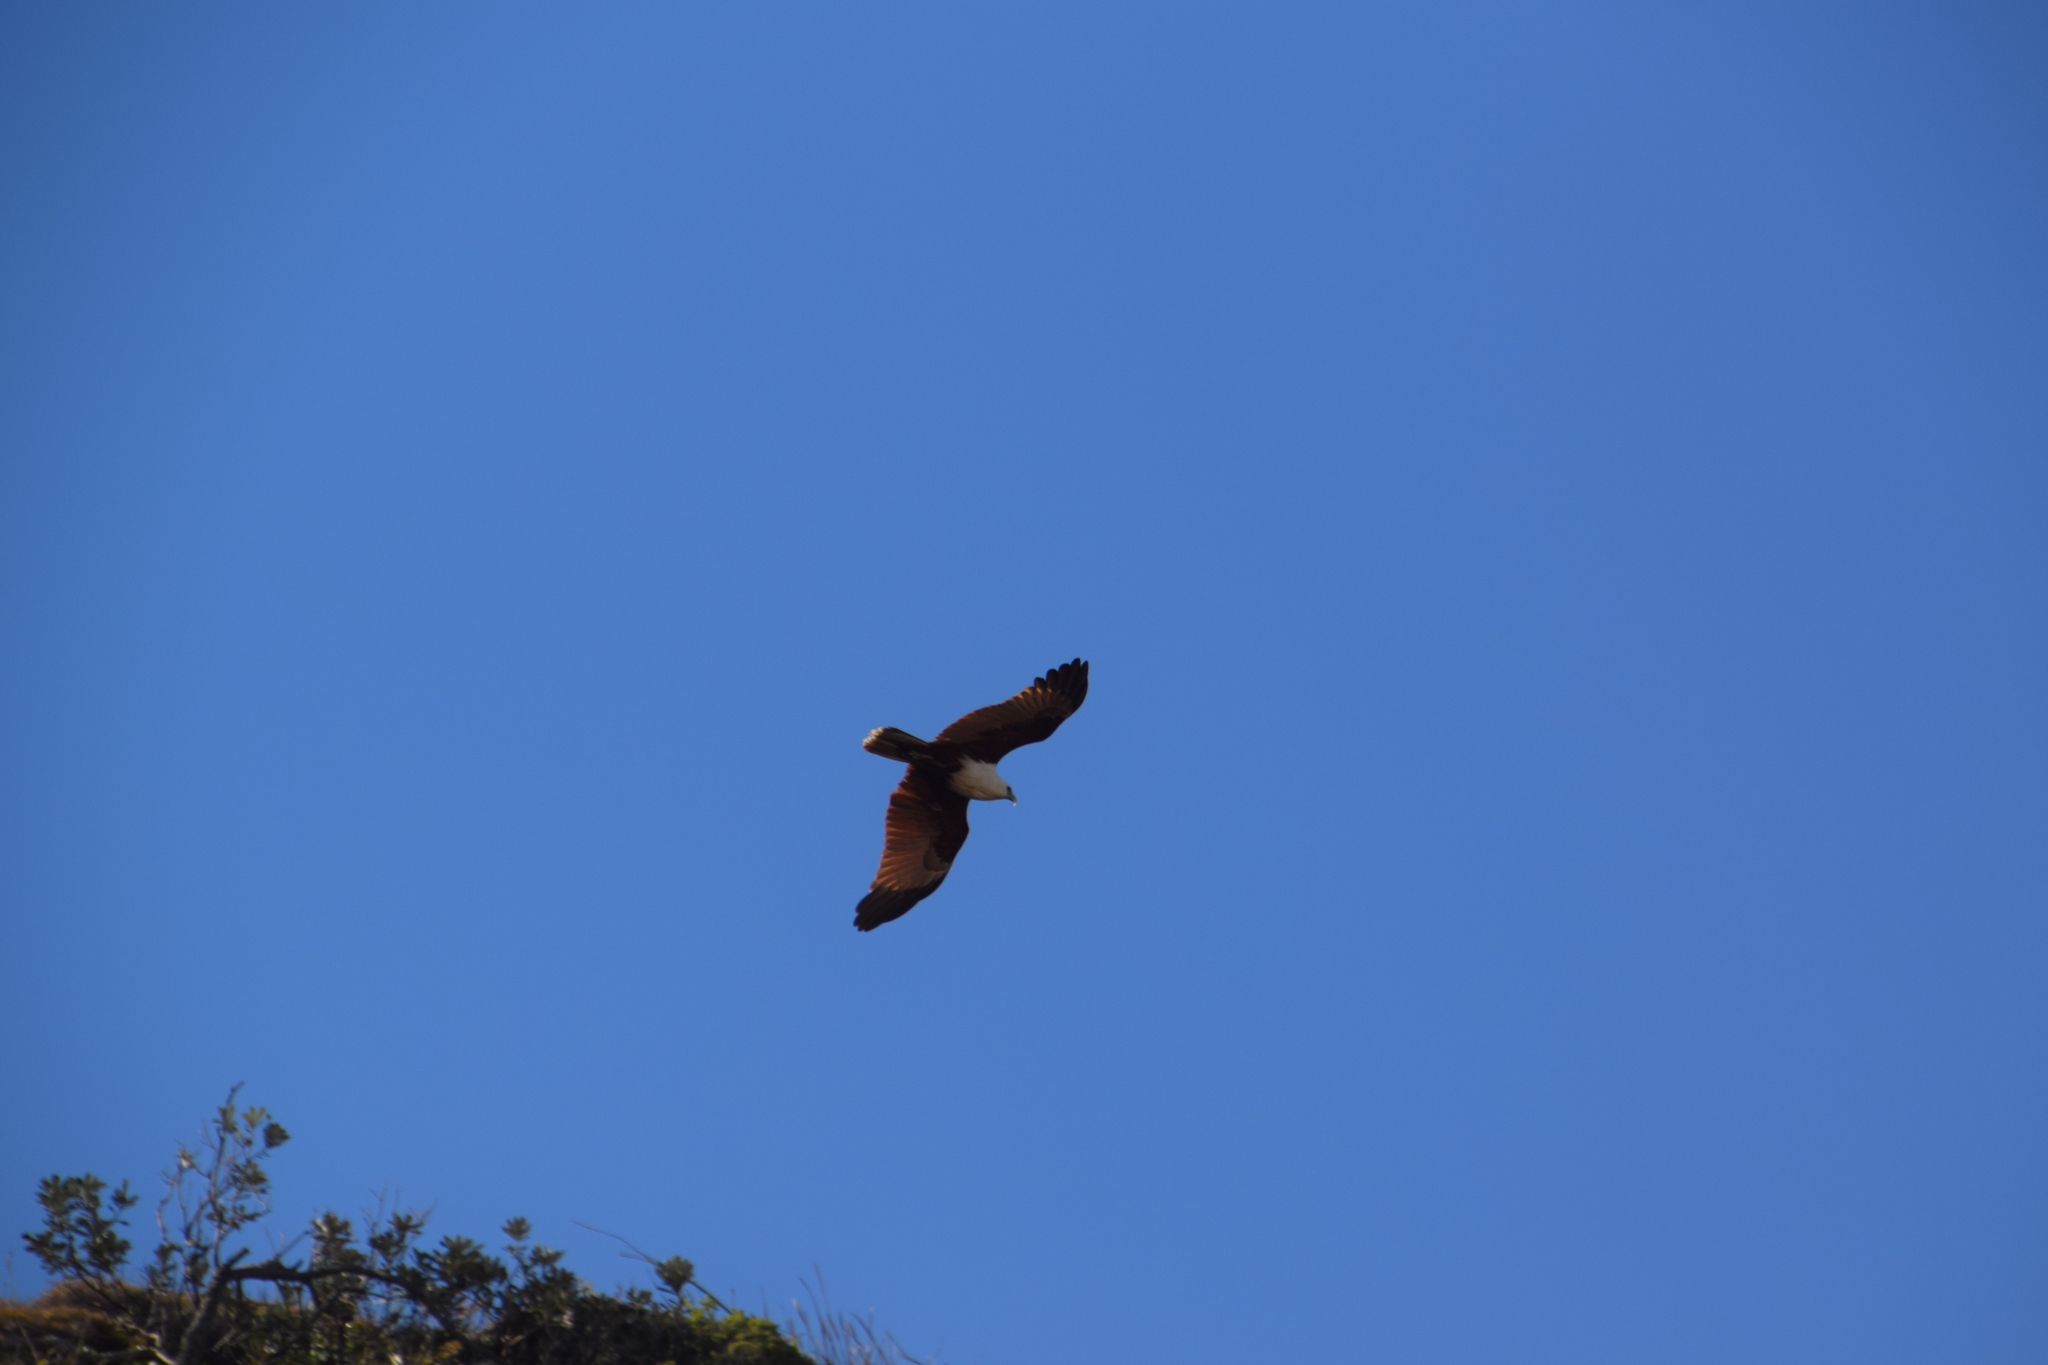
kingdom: Animalia
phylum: Chordata
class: Aves
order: Accipitriformes
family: Accipitridae
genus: Haliastur
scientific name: Haliastur indus
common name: Brahminy kite
